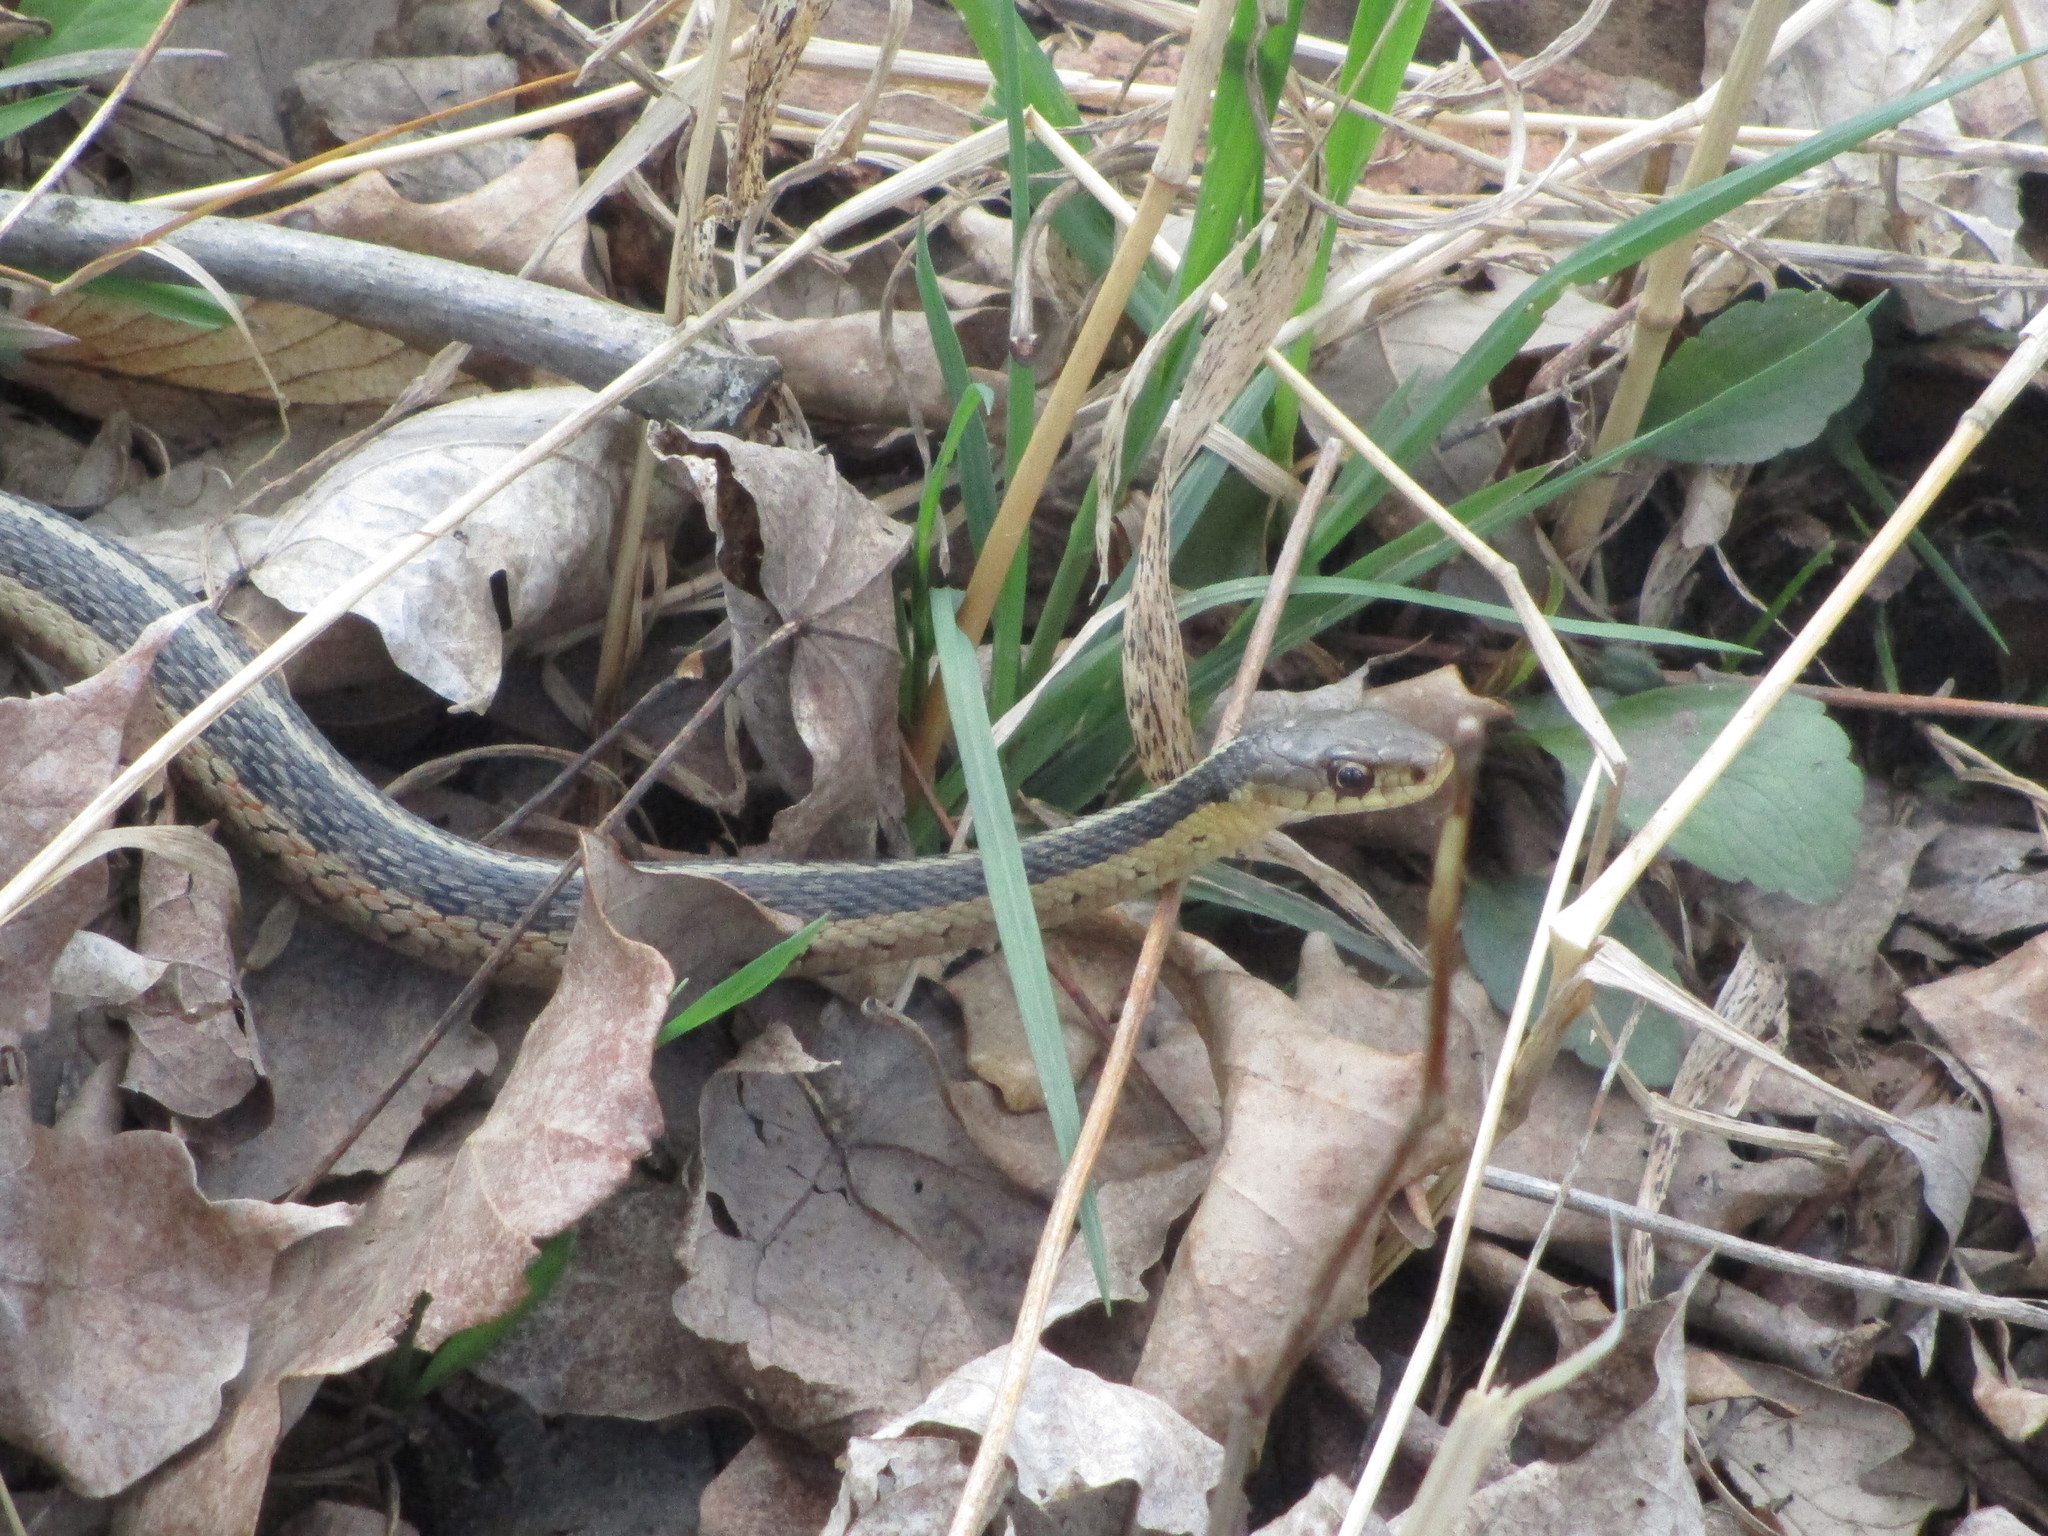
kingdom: Animalia
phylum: Chordata
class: Squamata
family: Colubridae
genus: Thamnophis
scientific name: Thamnophis sirtalis
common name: Common garter snake
